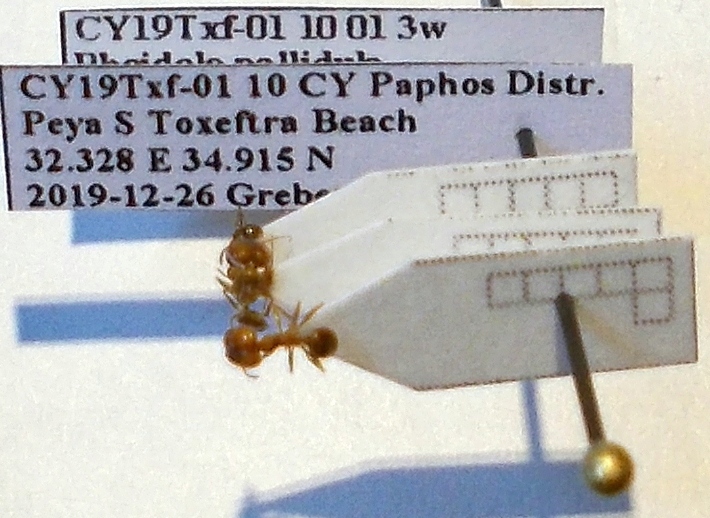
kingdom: Animalia
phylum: Arthropoda
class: Insecta
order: Hymenoptera
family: Formicidae
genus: Pheidole
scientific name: Pheidole pallidula
